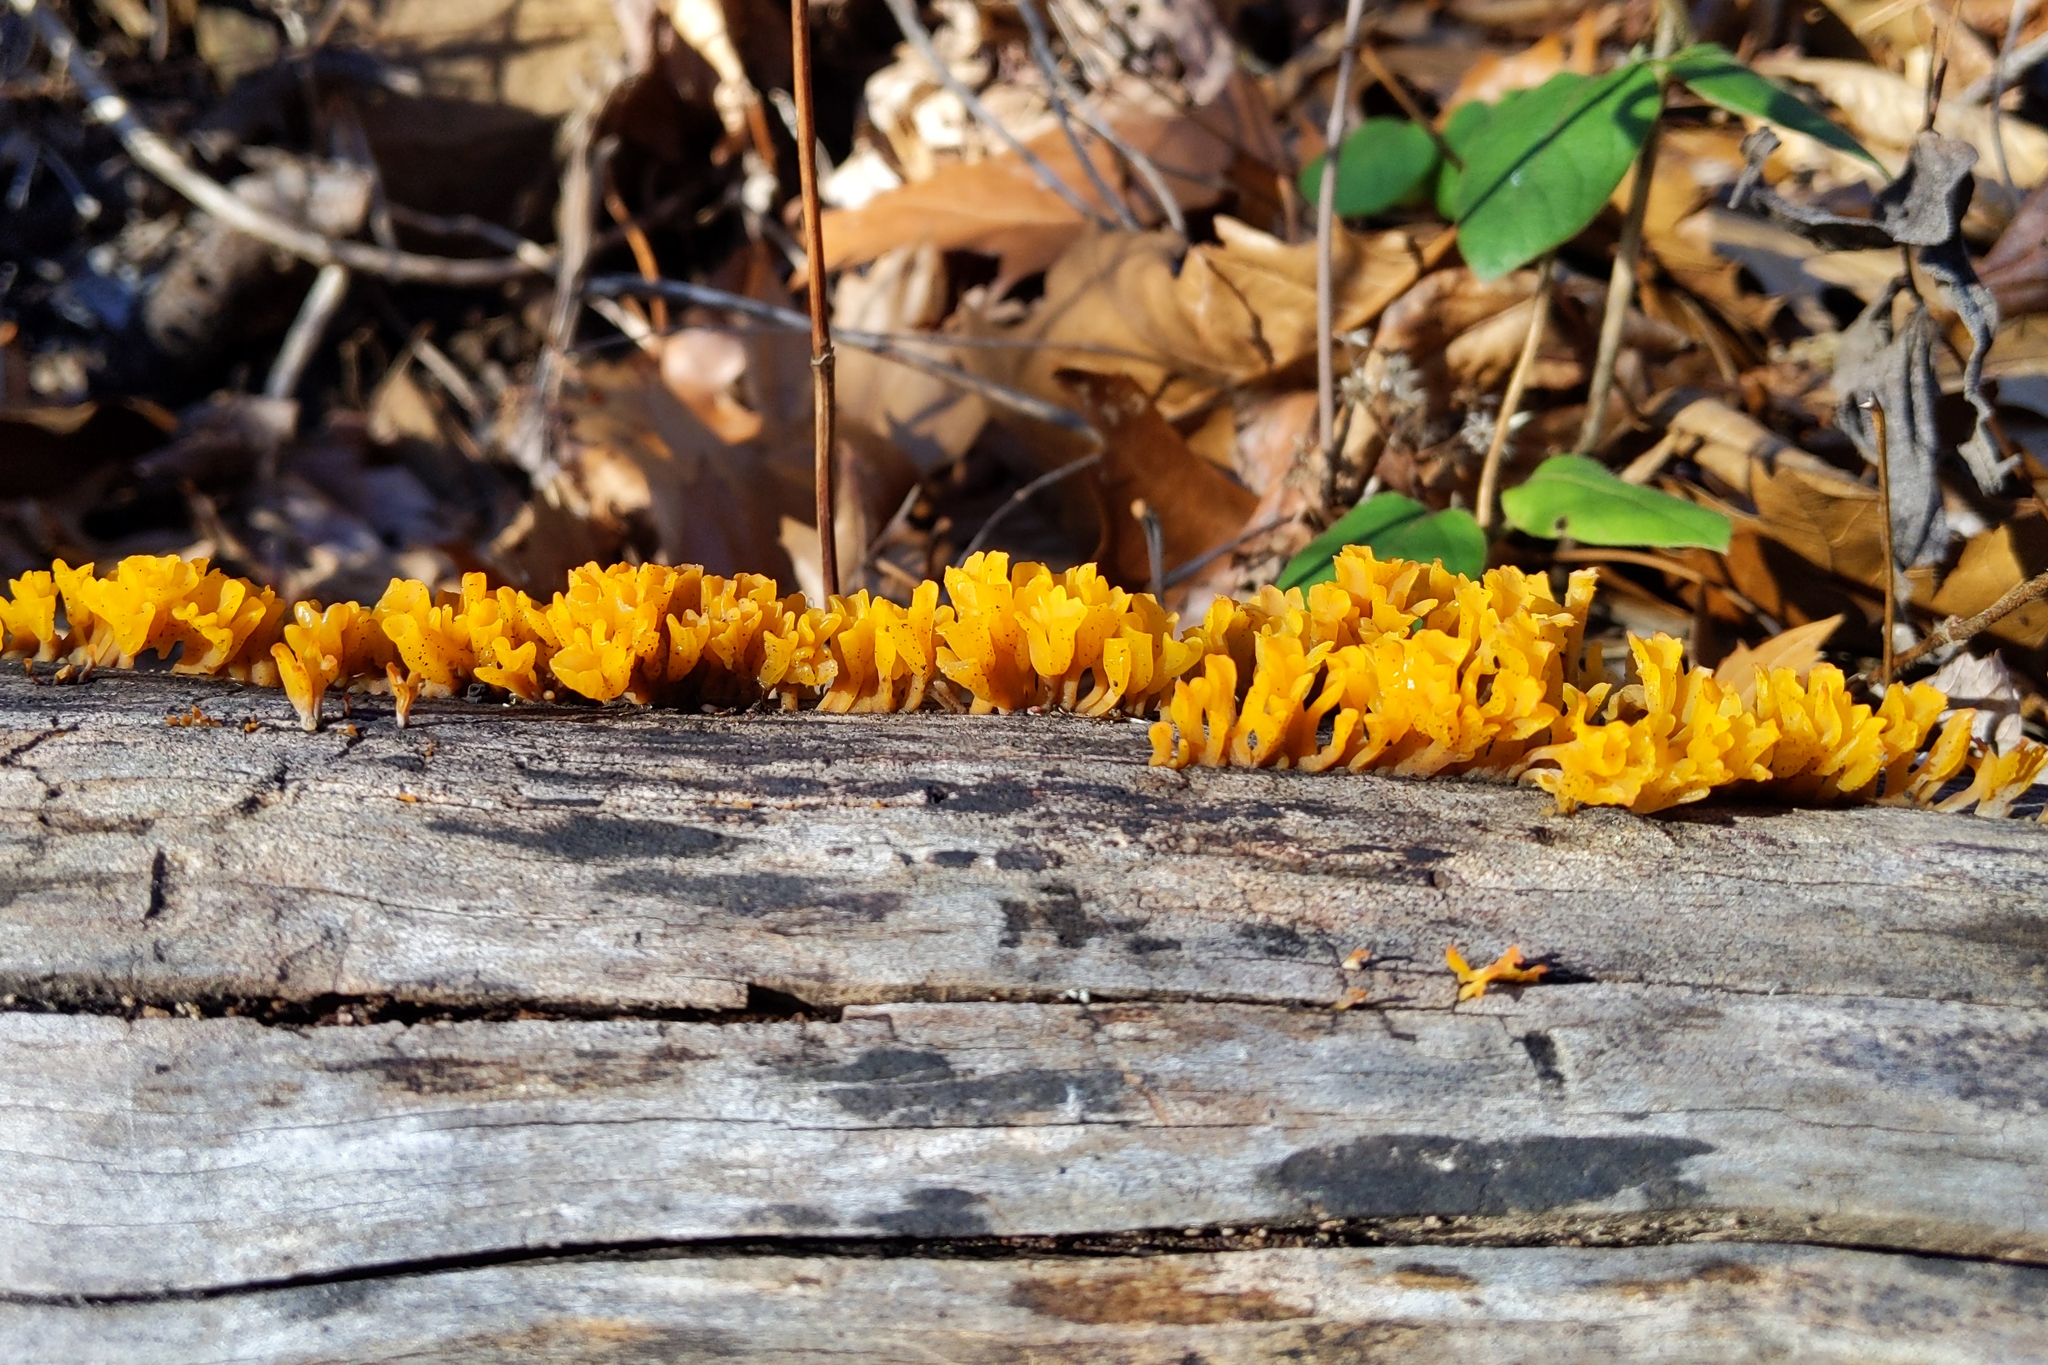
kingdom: Fungi
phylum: Basidiomycota
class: Dacrymycetes
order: Dacrymycetales
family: Dacrymycetaceae
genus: Dacrymyces
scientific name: Dacrymyces spathularius
